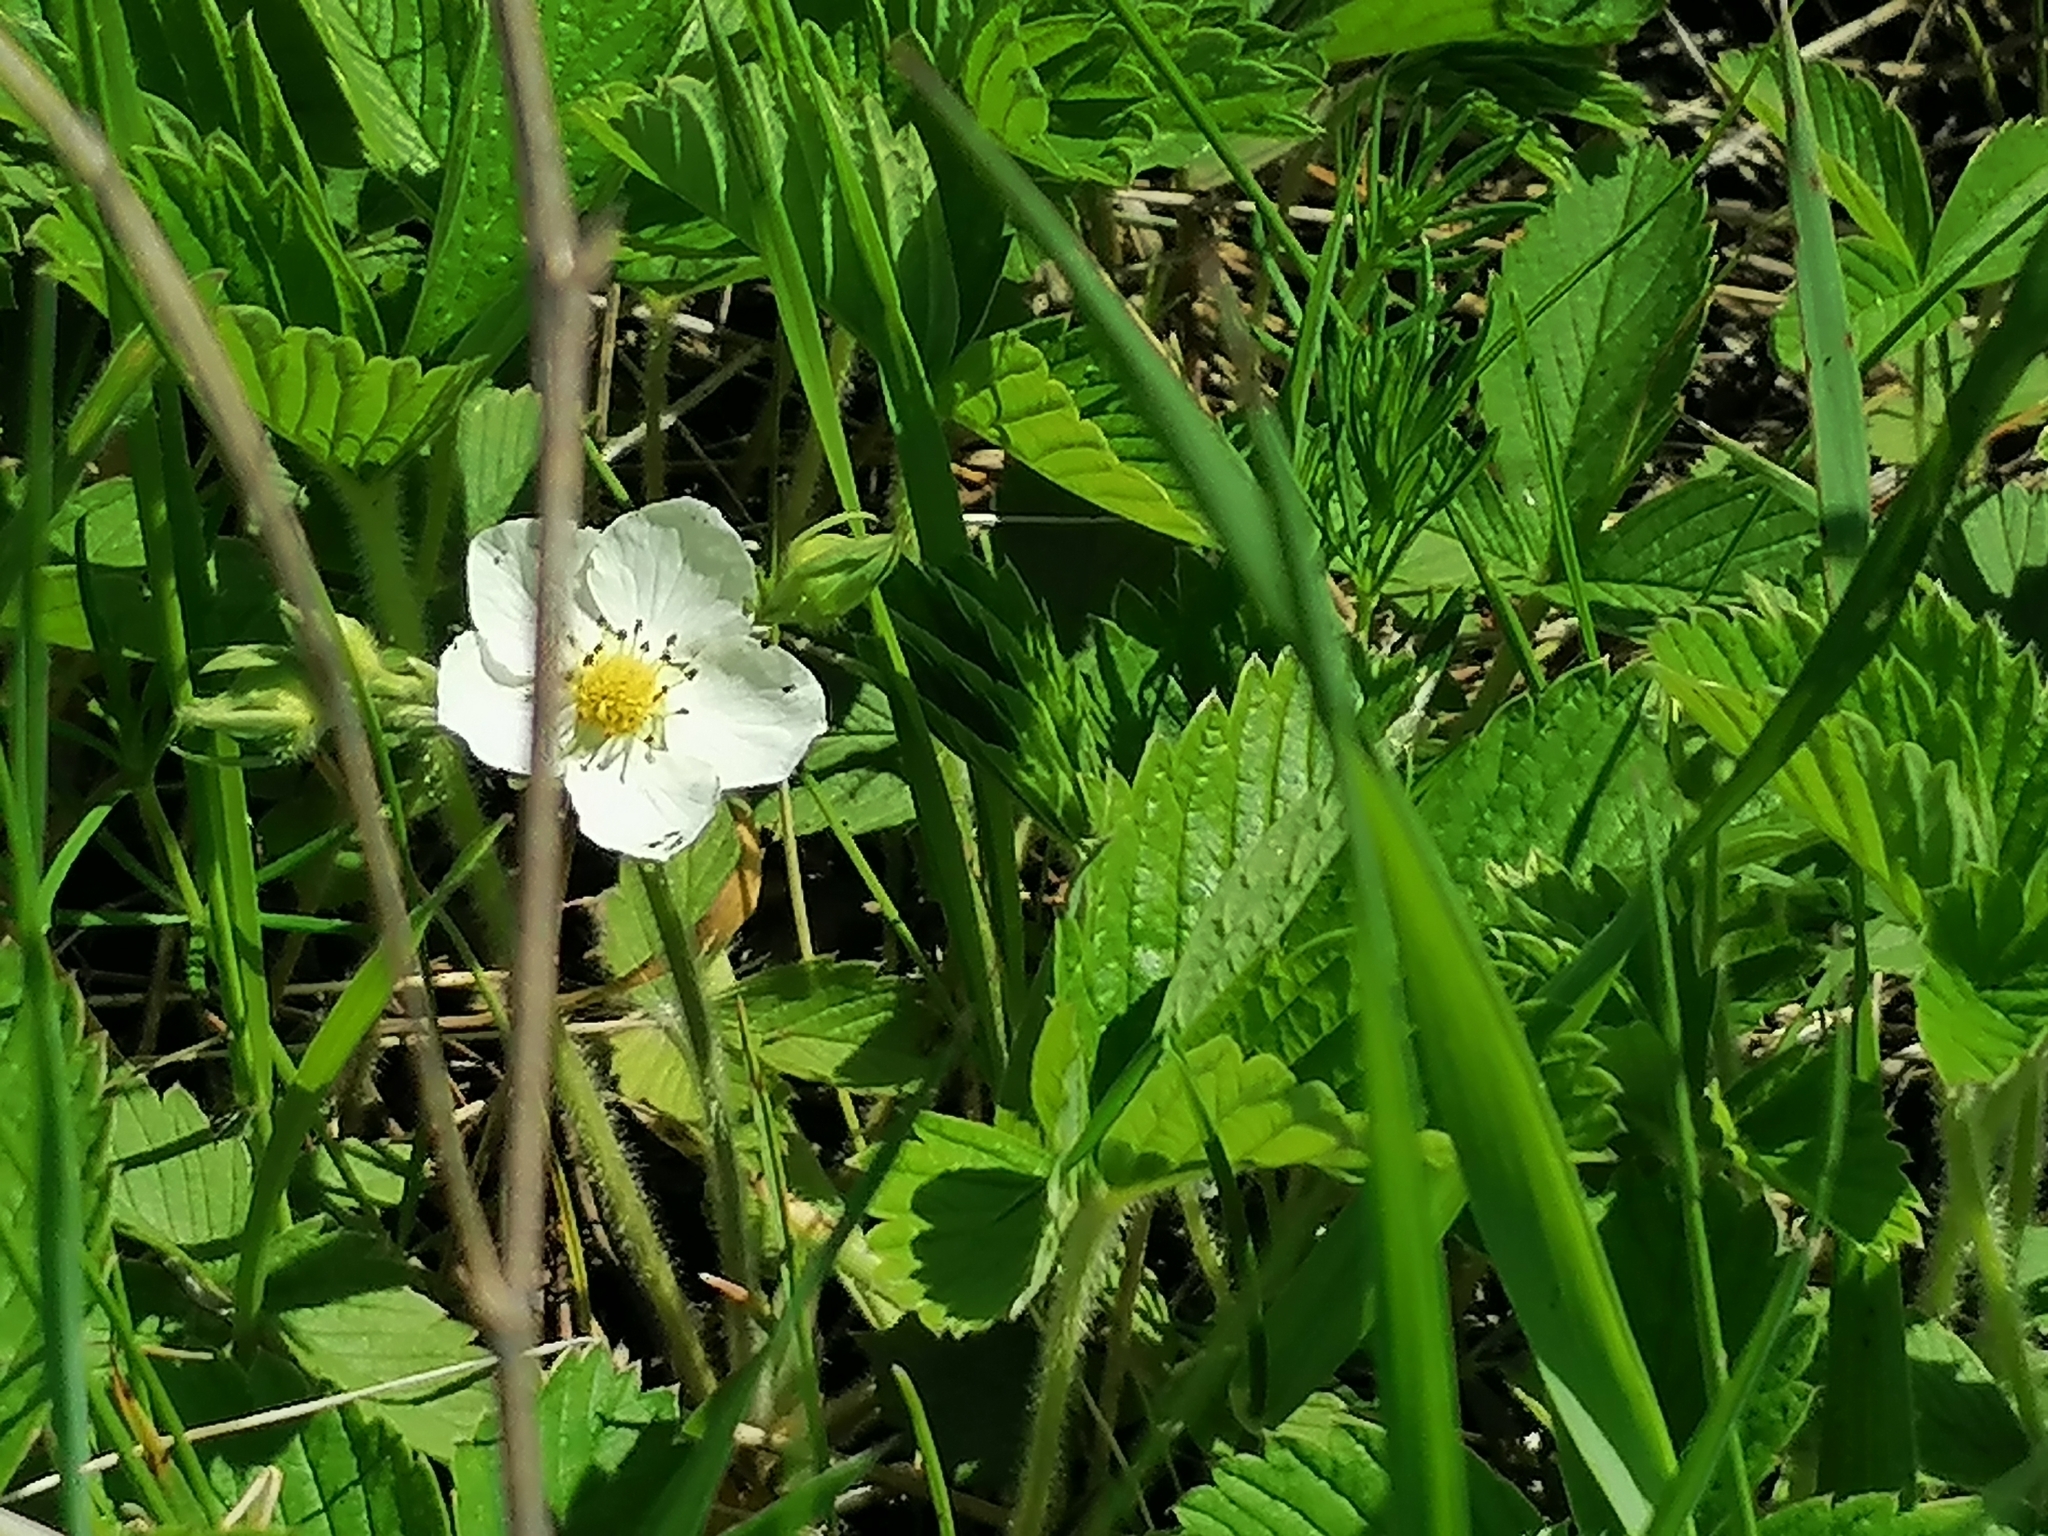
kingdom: Plantae
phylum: Tracheophyta
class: Magnoliopsida
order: Rosales
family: Rosaceae
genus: Fragaria
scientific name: Fragaria viridis
